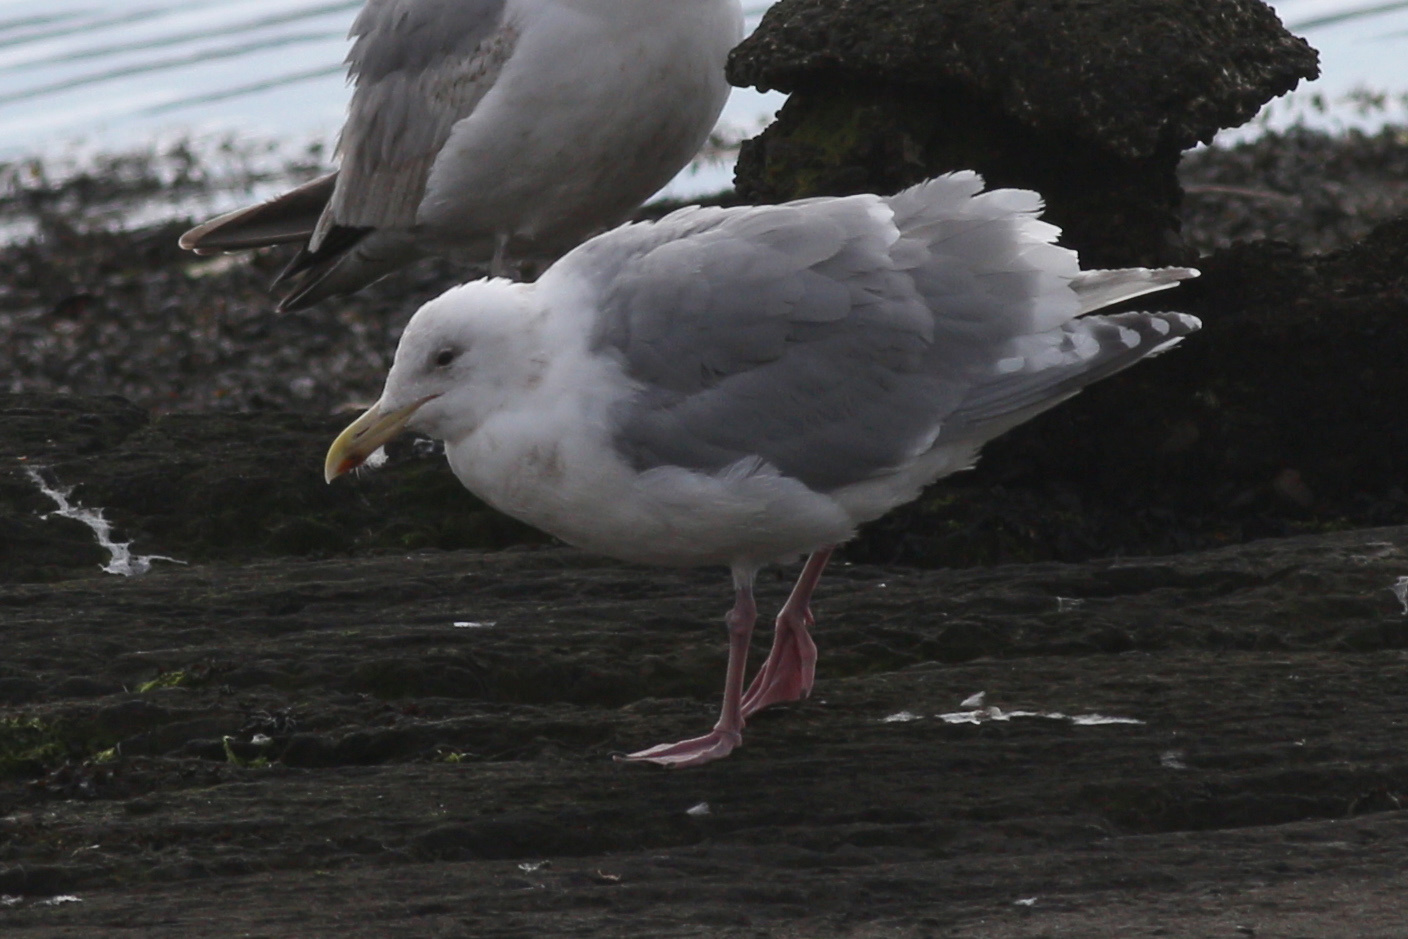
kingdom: Animalia
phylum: Chordata
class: Aves
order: Charadriiformes
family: Laridae
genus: Larus
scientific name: Larus glaucescens
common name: Glaucous-winged gull
